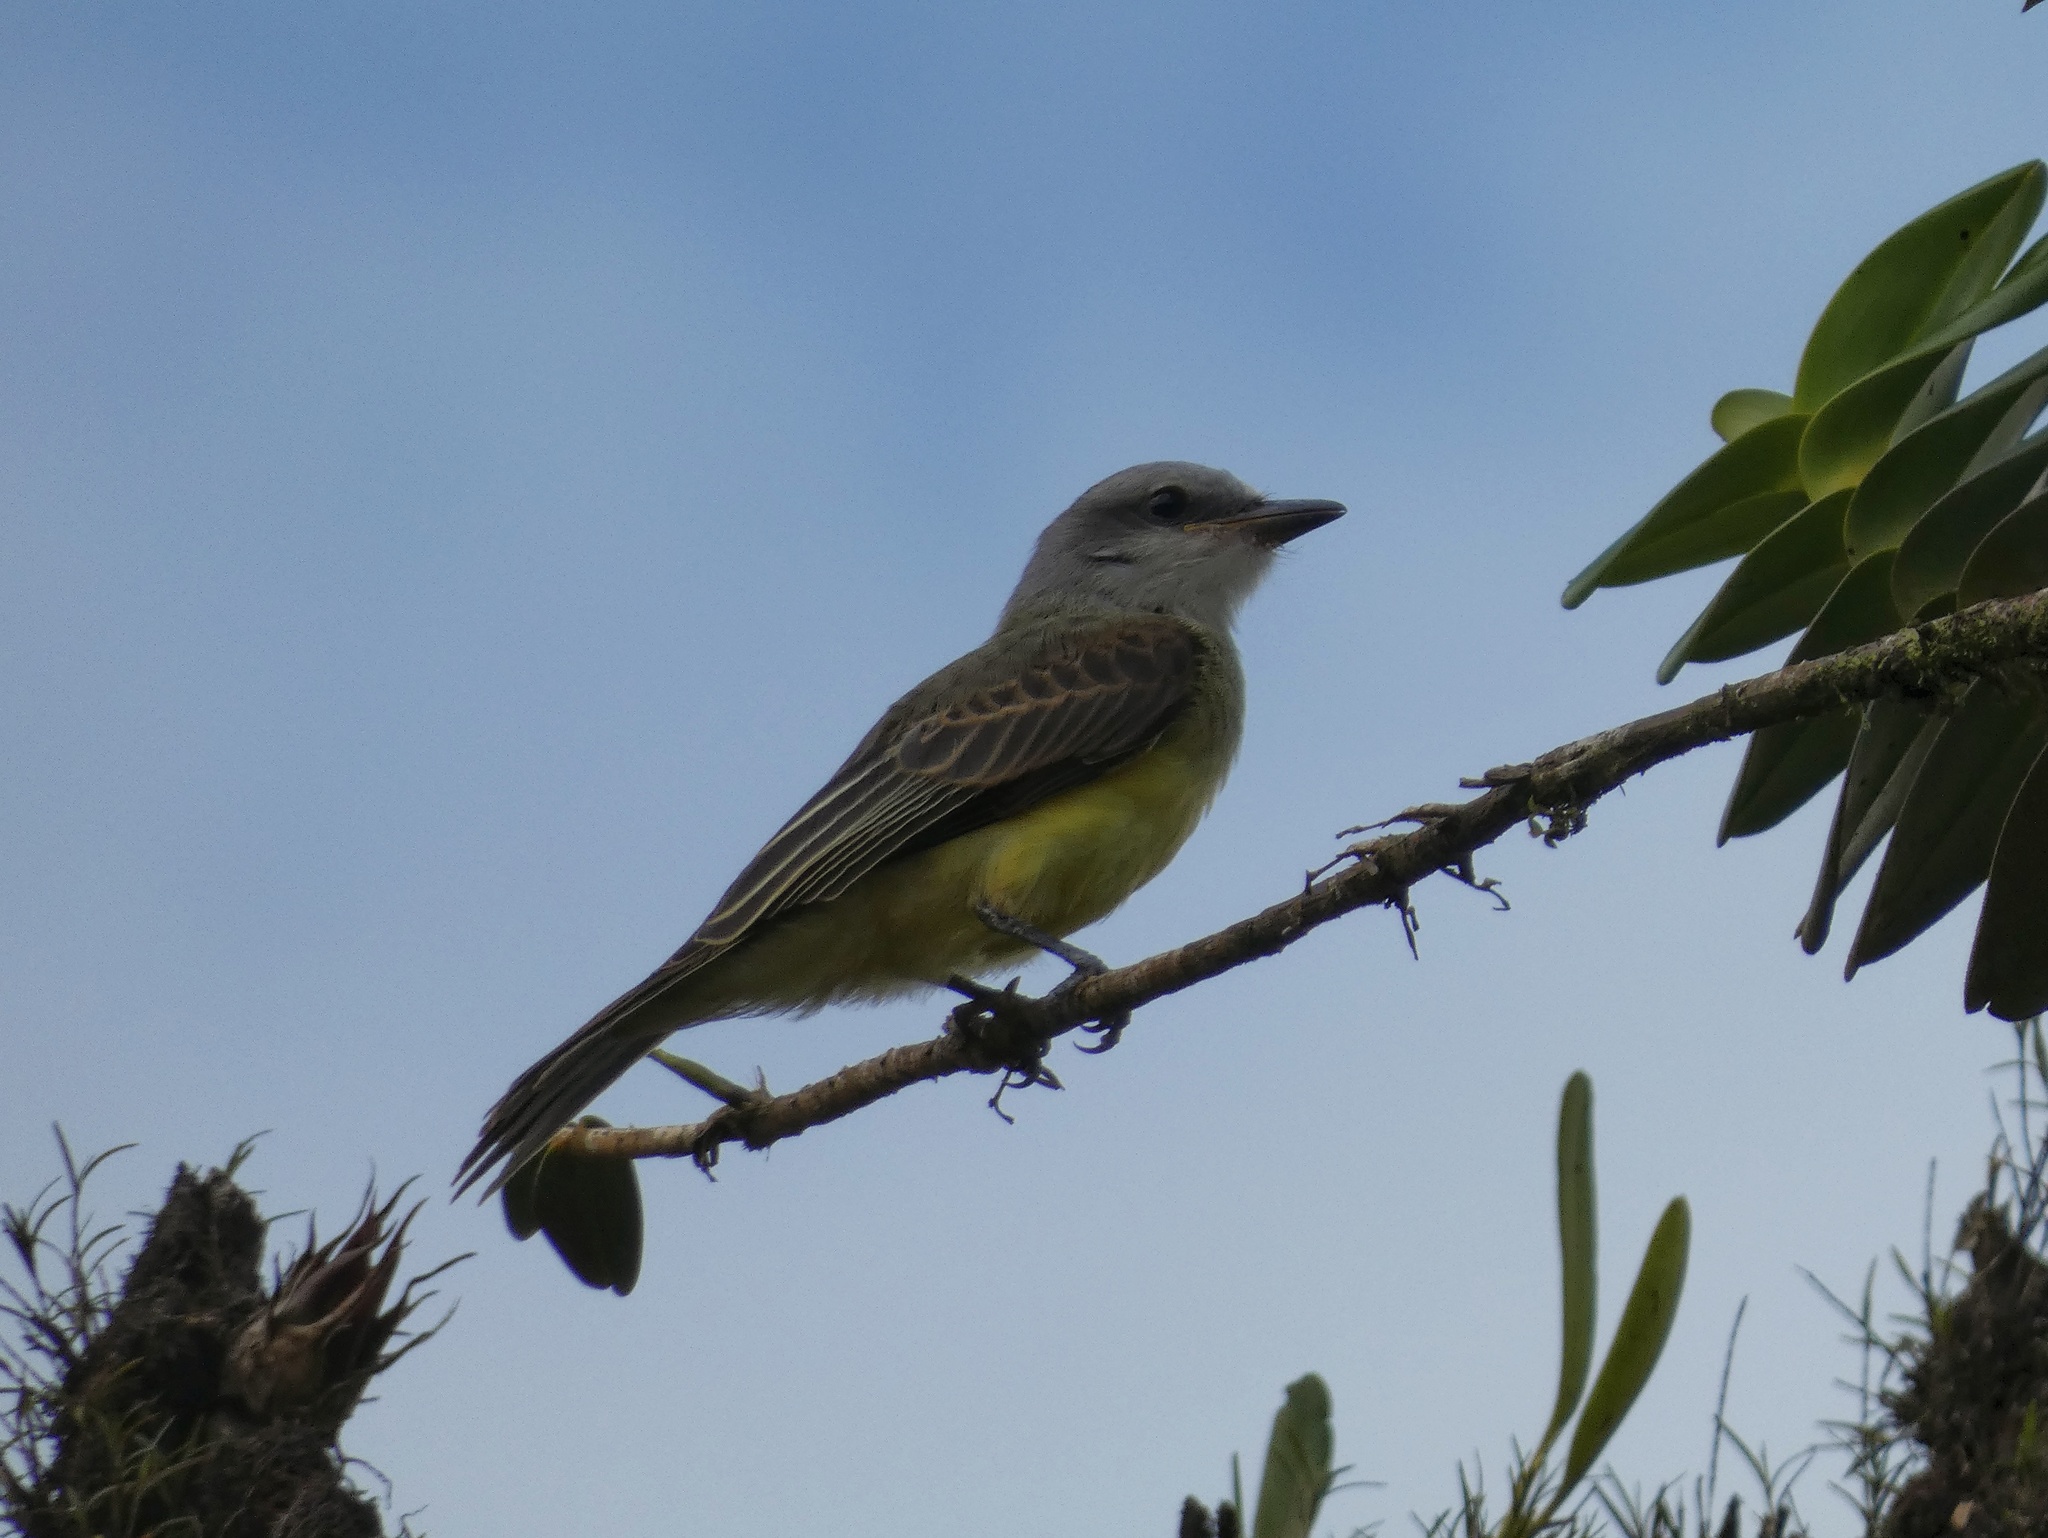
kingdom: Animalia
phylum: Chordata
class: Aves
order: Passeriformes
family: Tyrannidae
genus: Tyrannus
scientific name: Tyrannus melancholicus
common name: Tropical kingbird
